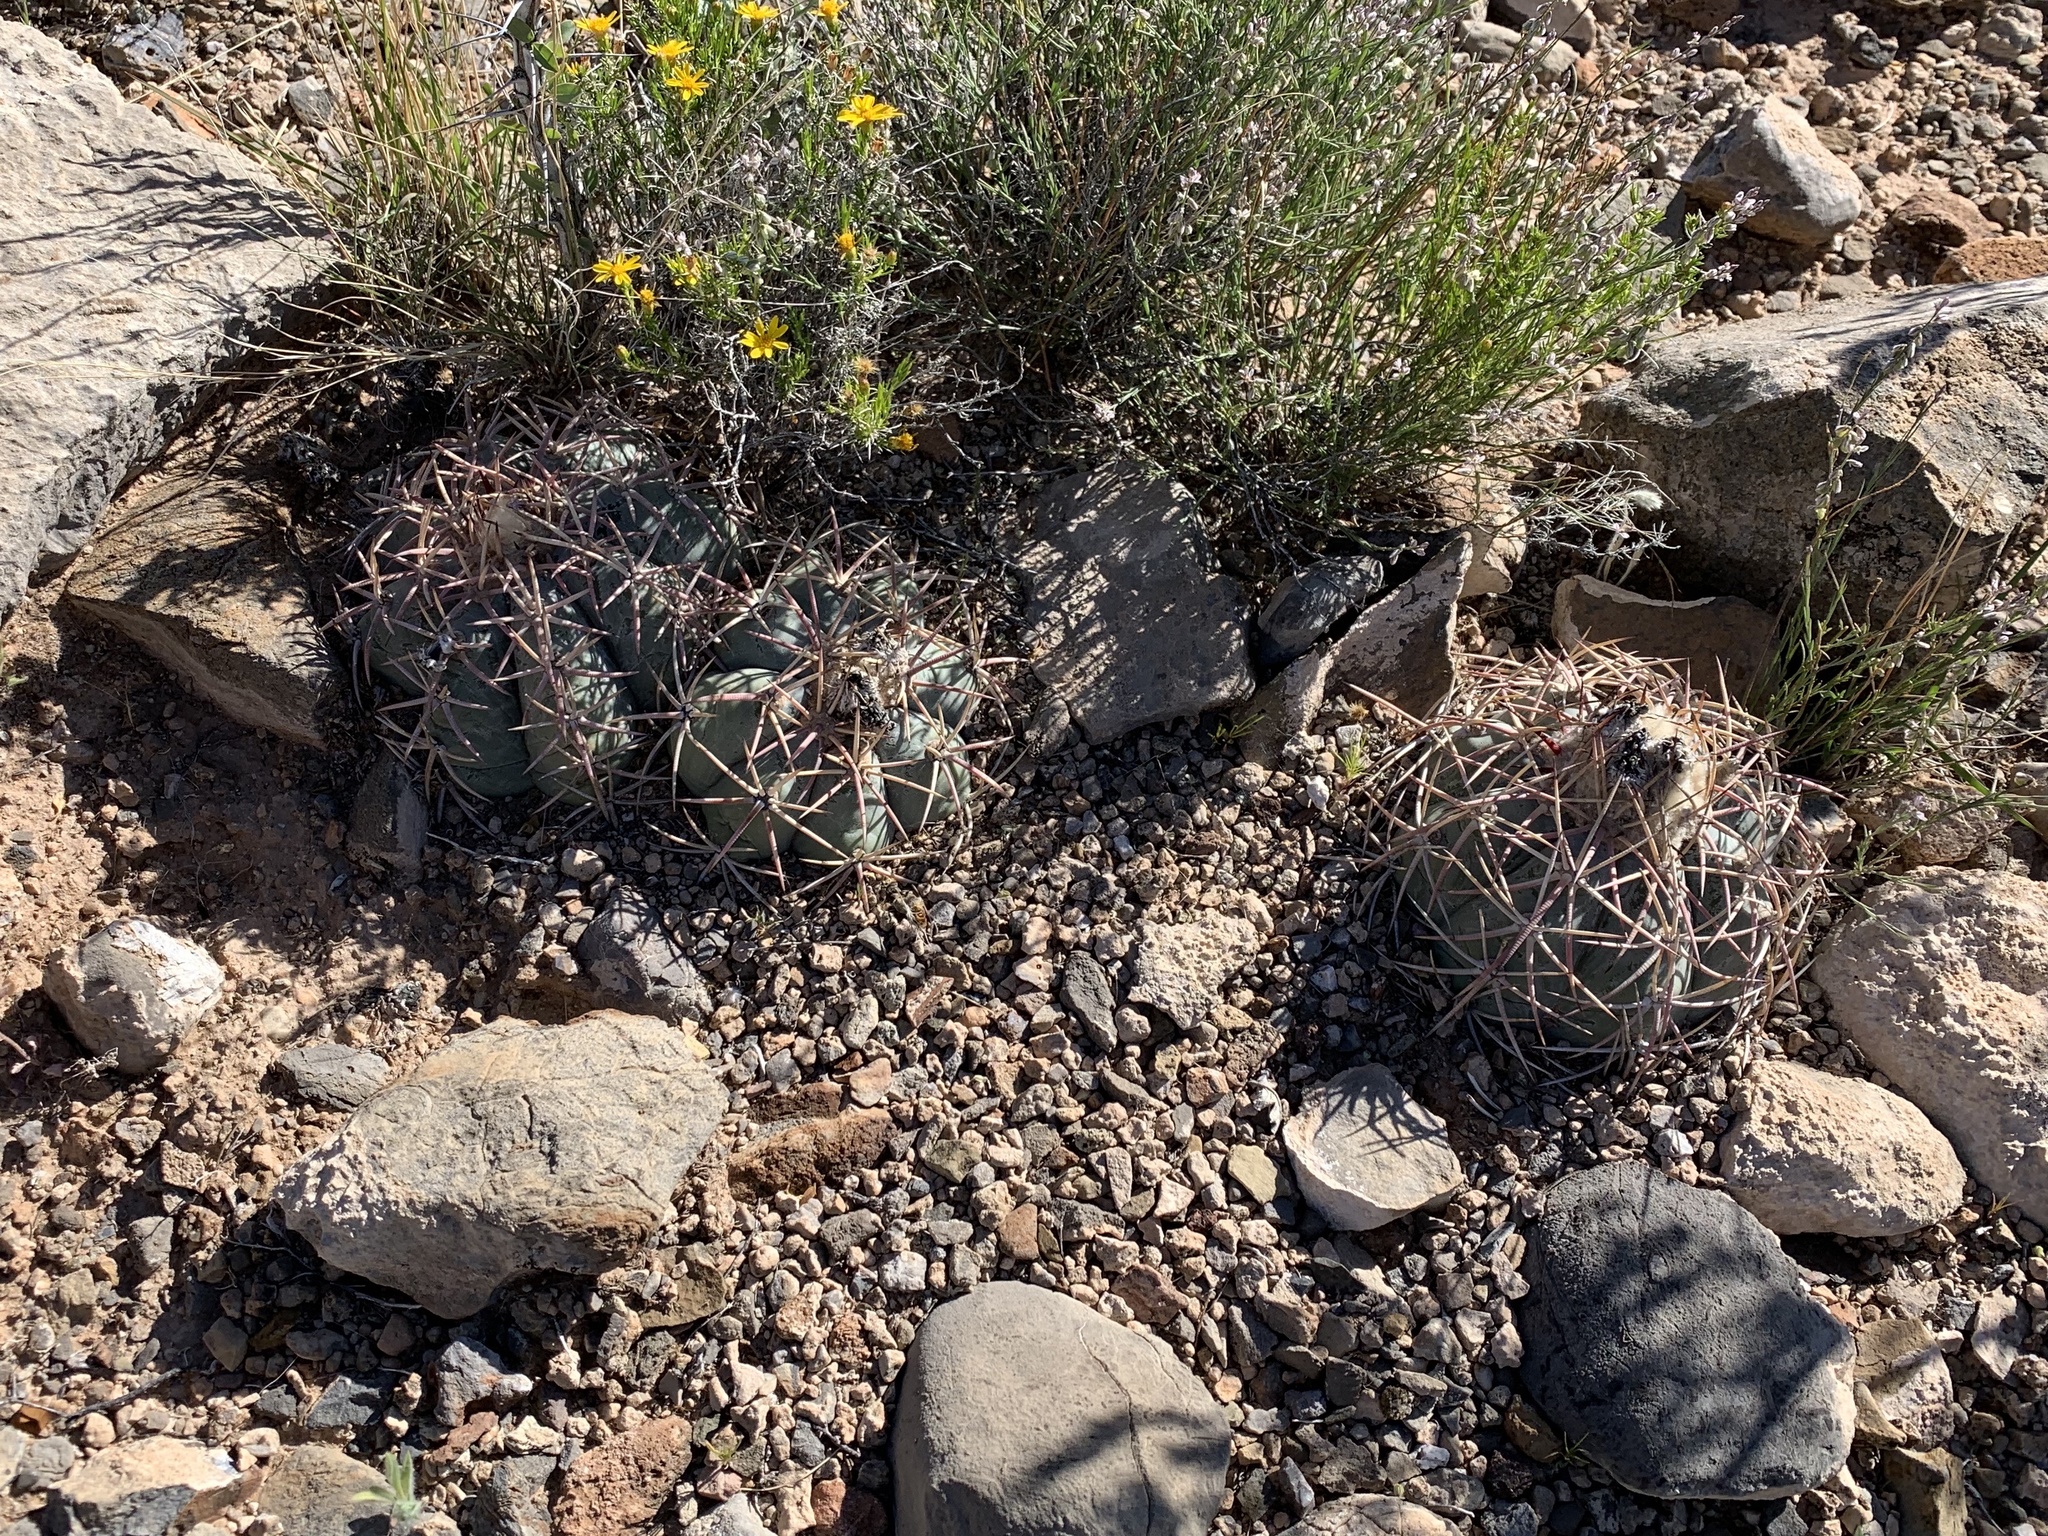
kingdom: Plantae
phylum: Tracheophyta
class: Magnoliopsida
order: Caryophyllales
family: Cactaceae
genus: Echinocactus
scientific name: Echinocactus horizonthalonius
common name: Devilshead
